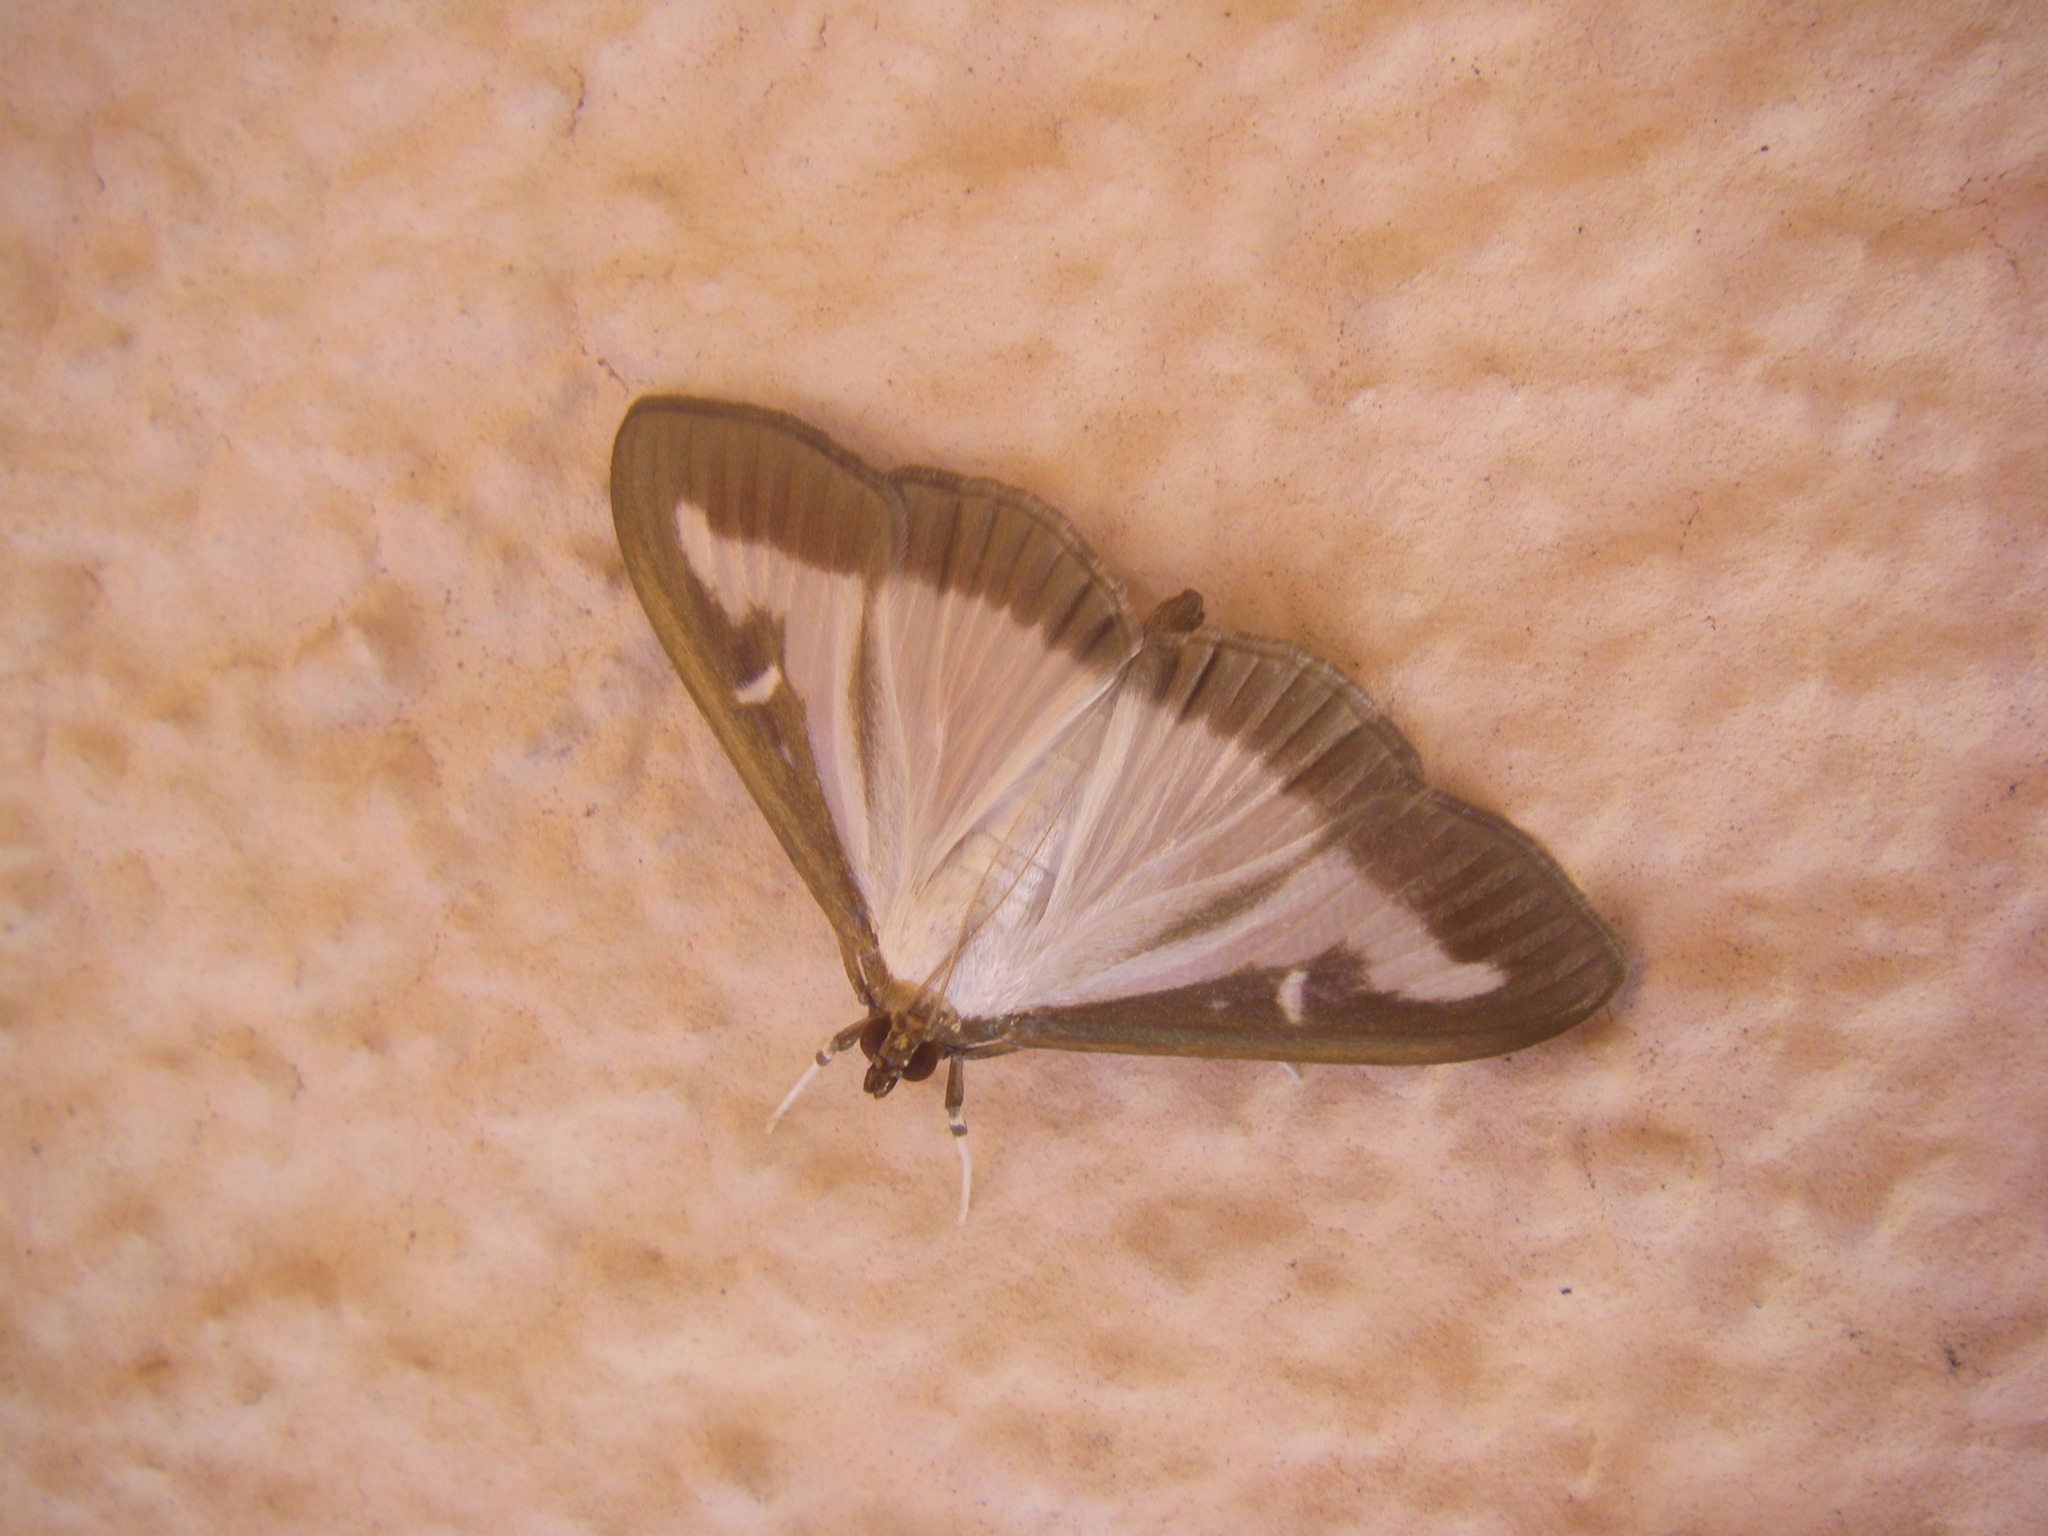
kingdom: Animalia
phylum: Arthropoda
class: Insecta
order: Lepidoptera
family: Crambidae
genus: Cydalima
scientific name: Cydalima perspectalis
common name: Box tree moth
